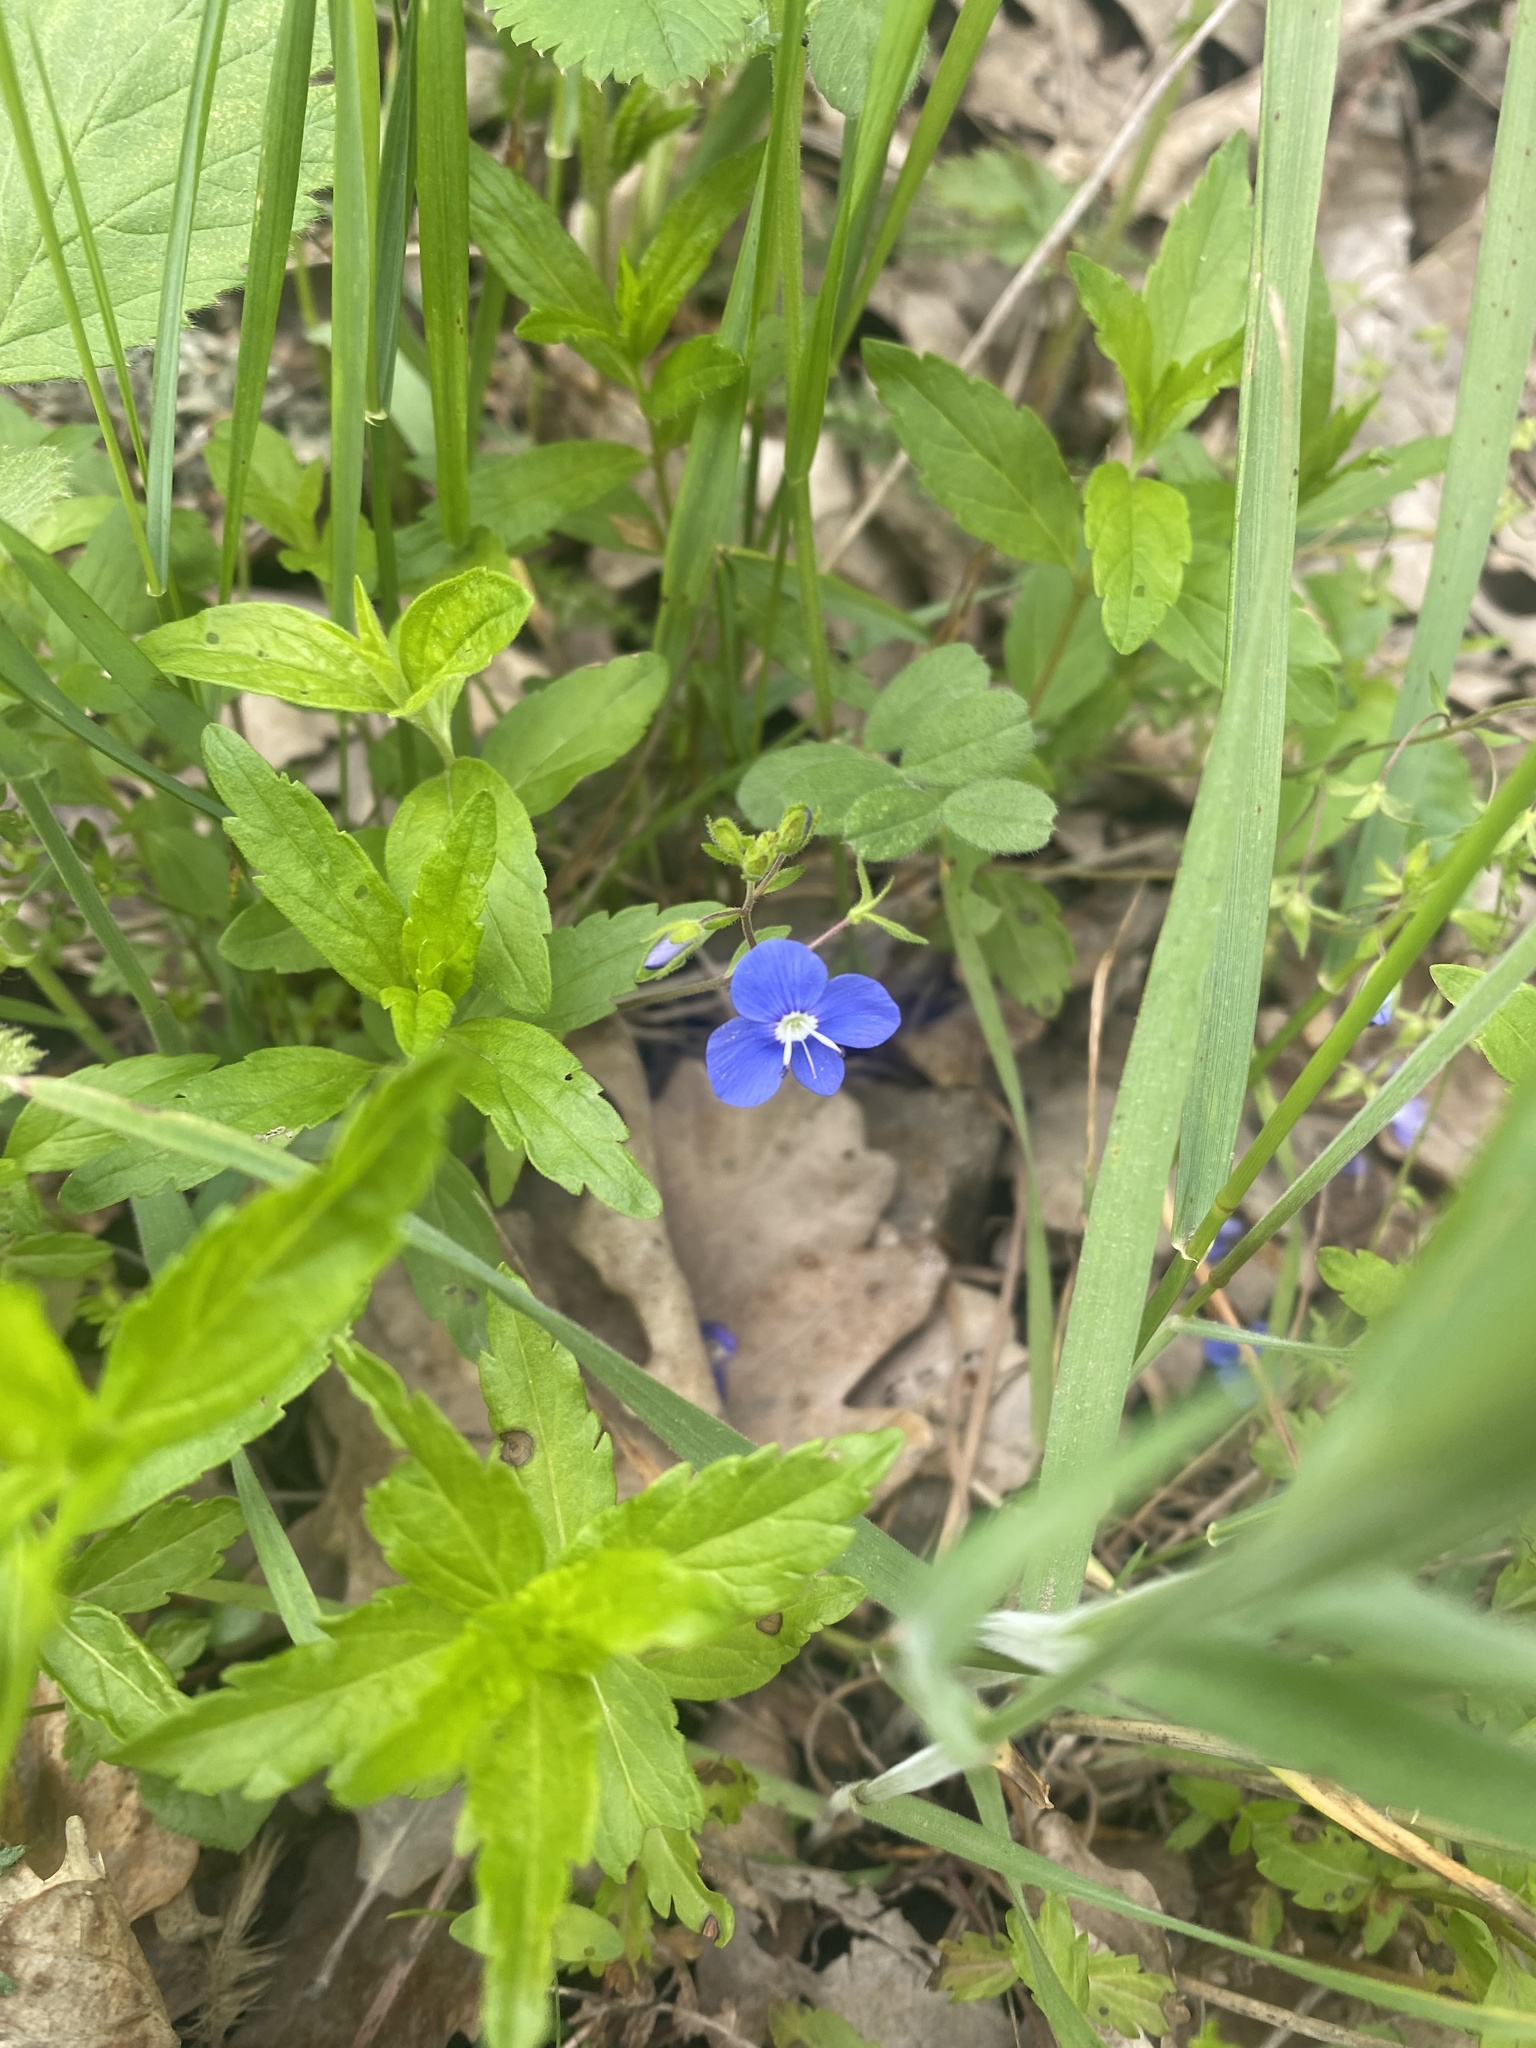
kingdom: Plantae
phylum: Tracheophyta
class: Magnoliopsida
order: Lamiales
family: Plantaginaceae
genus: Veronica
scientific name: Veronica
